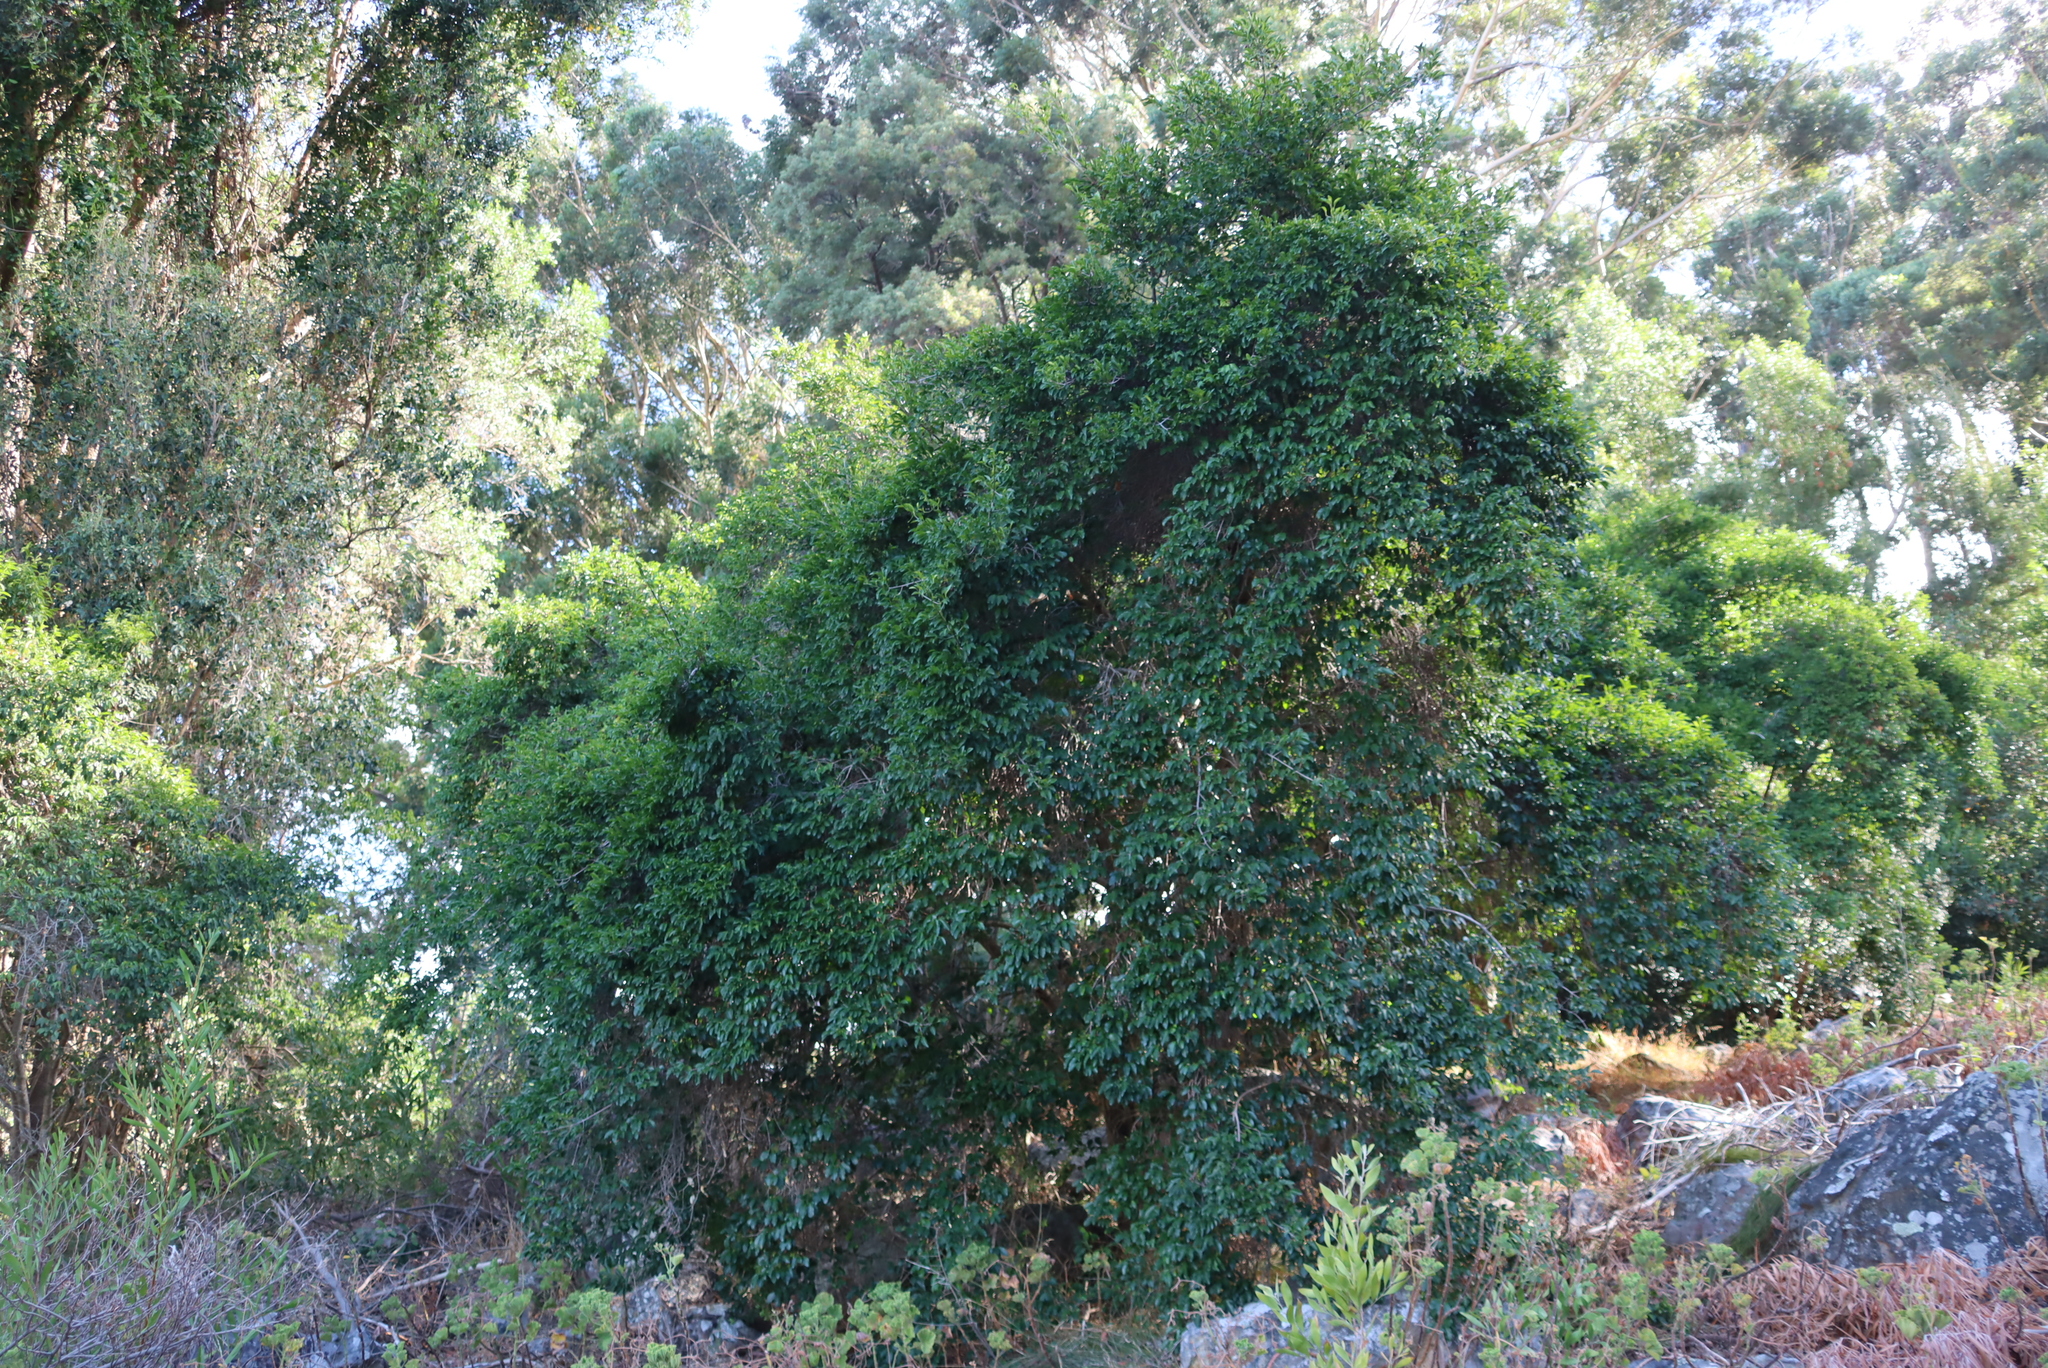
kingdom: Plantae
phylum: Tracheophyta
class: Magnoliopsida
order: Gentianales
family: Rubiaceae
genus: Canthium
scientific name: Canthium inerme
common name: Unarmed turkey-berry
